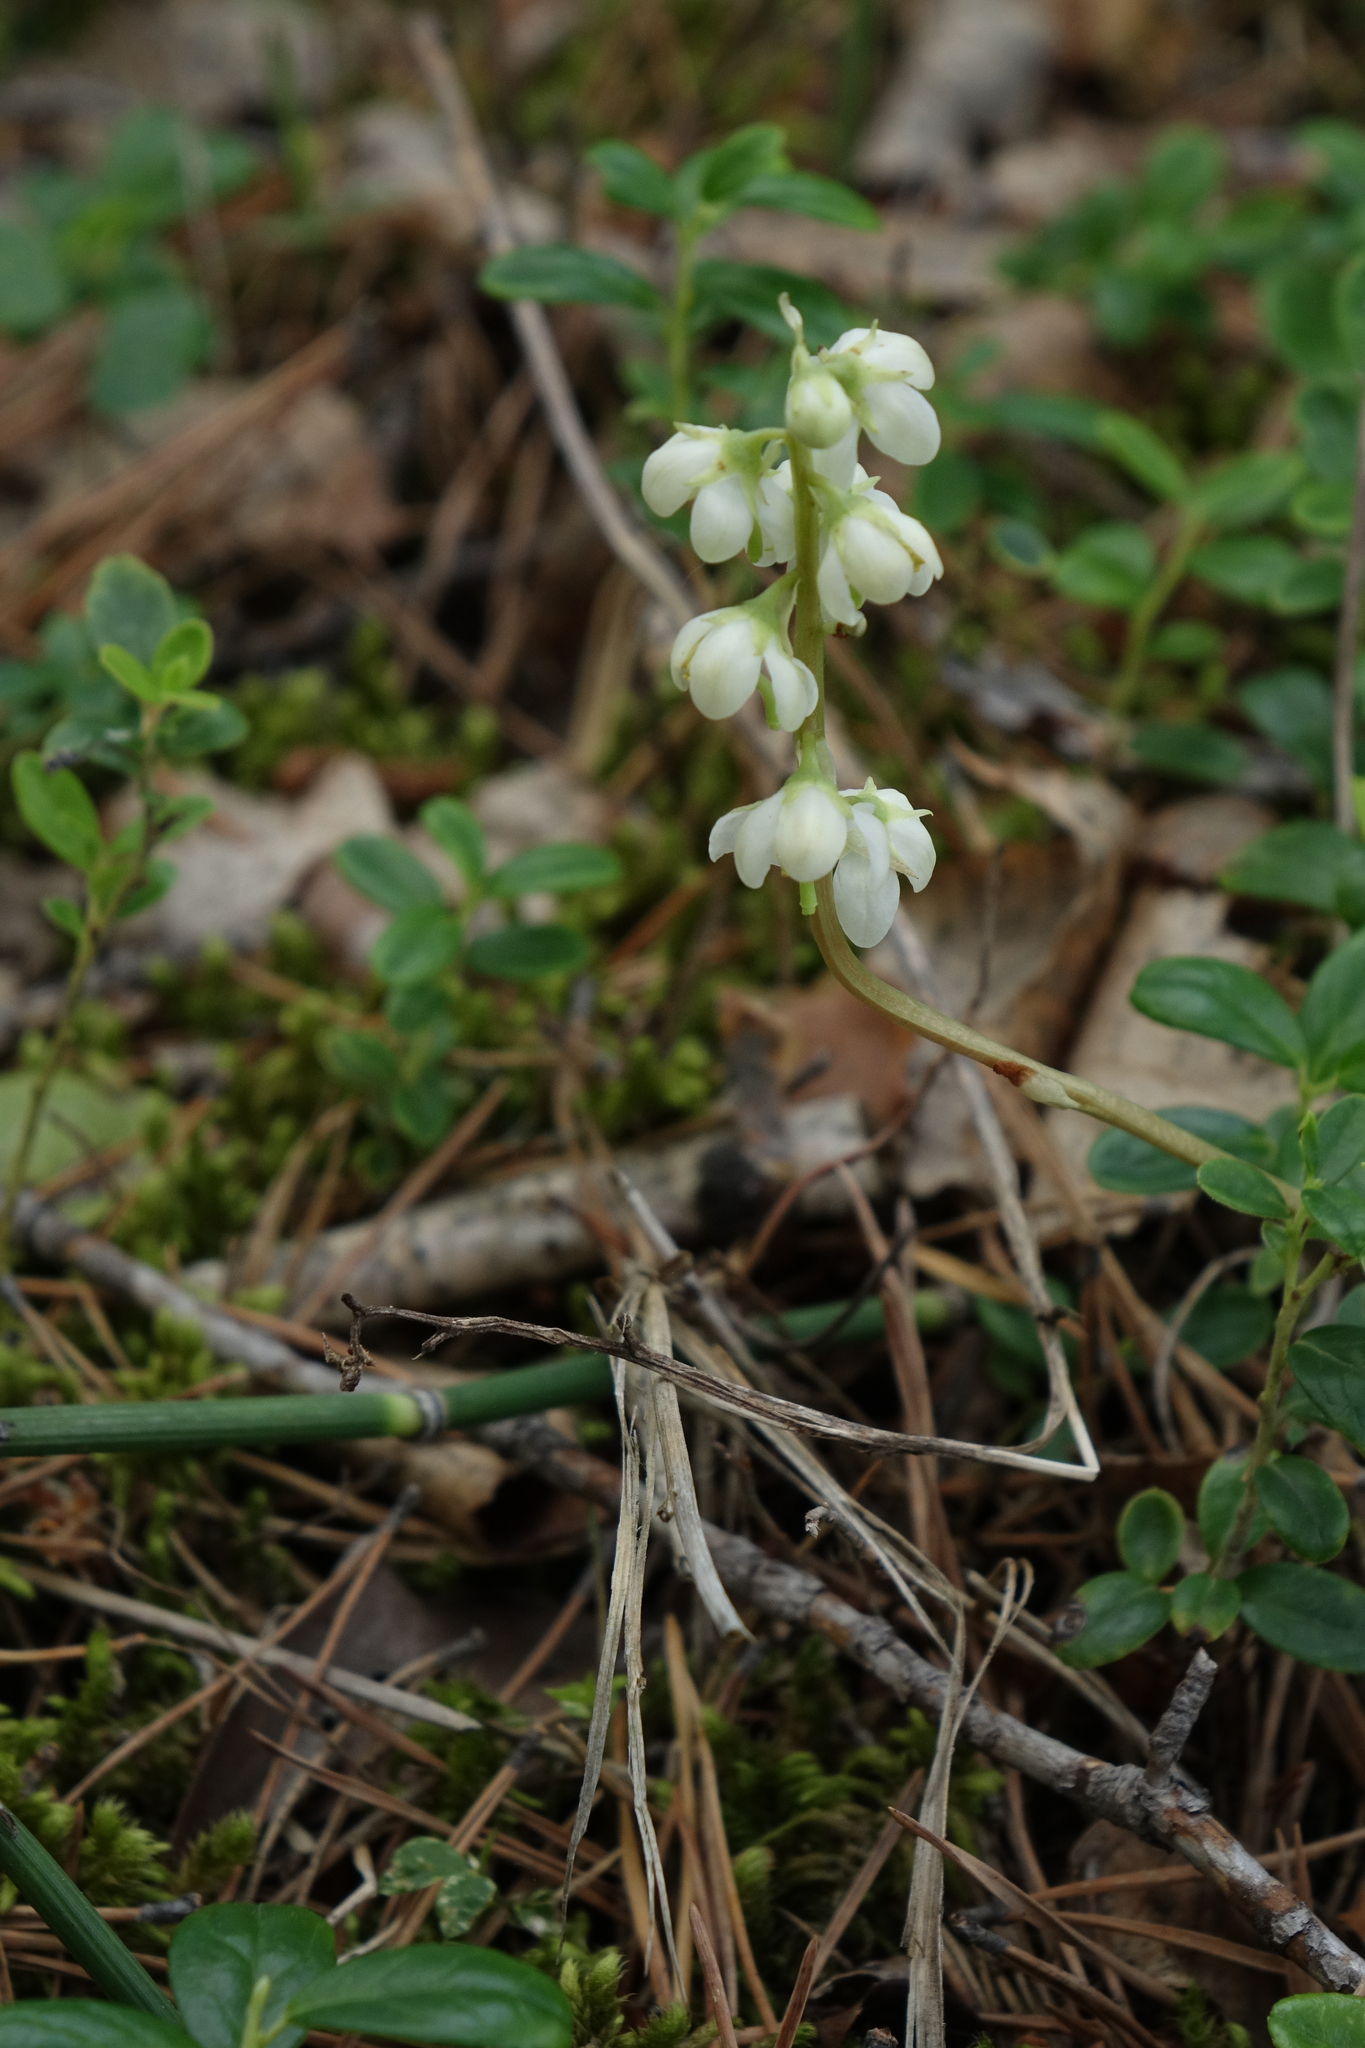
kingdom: Plantae
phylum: Tracheophyta
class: Magnoliopsida
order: Ericales
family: Ericaceae
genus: Pyrola
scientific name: Pyrola rotundifolia
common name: Round-leaved wintergreen
